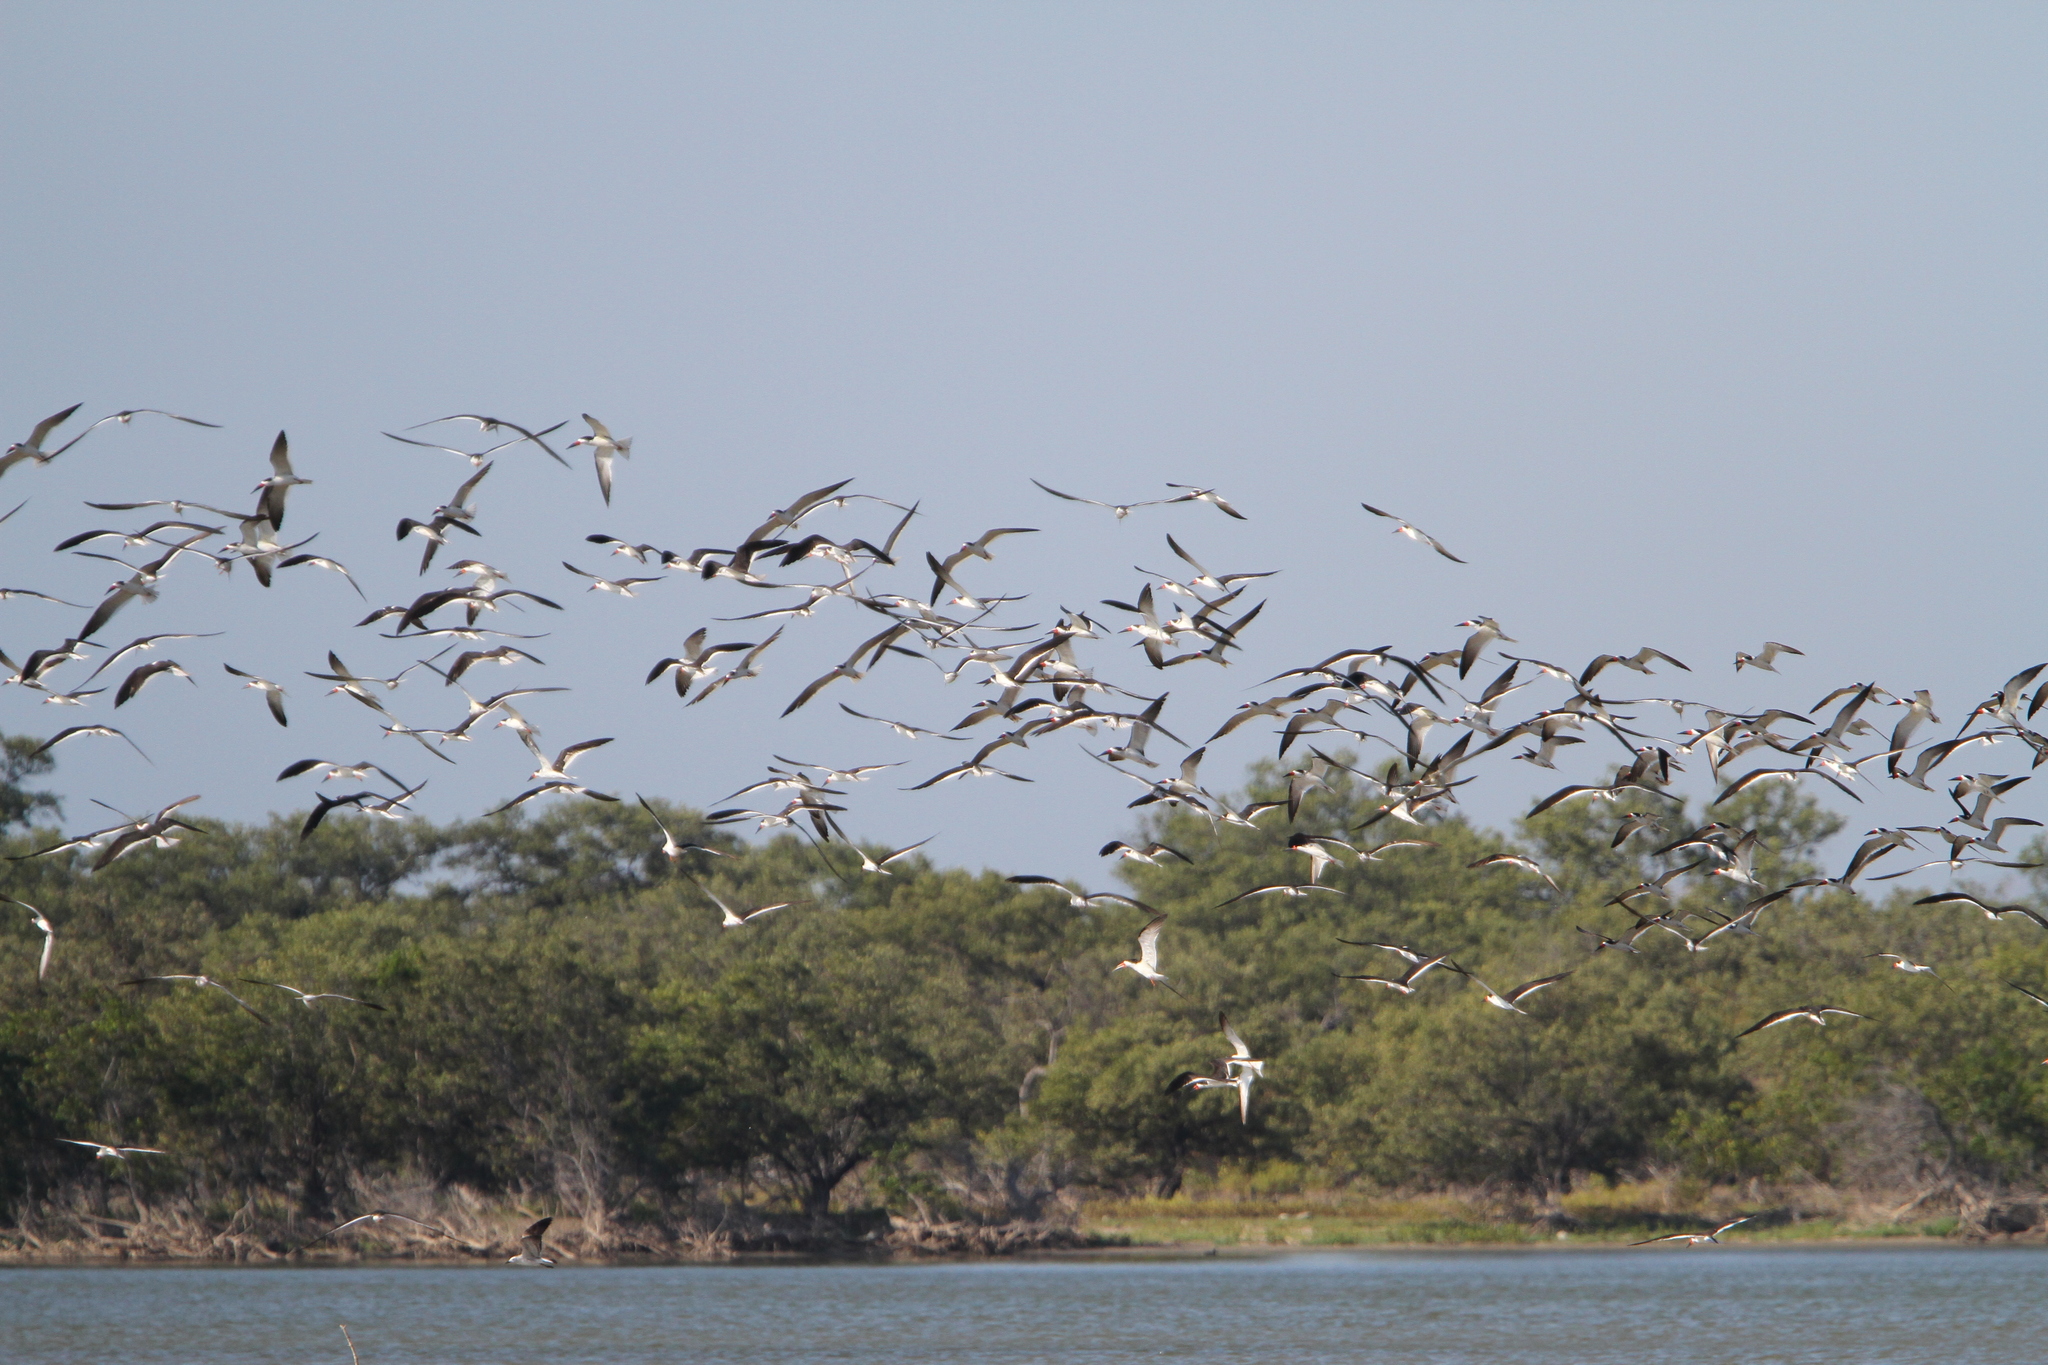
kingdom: Animalia
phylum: Chordata
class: Aves
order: Charadriiformes
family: Laridae
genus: Rynchops
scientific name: Rynchops niger
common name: Black skimmer
